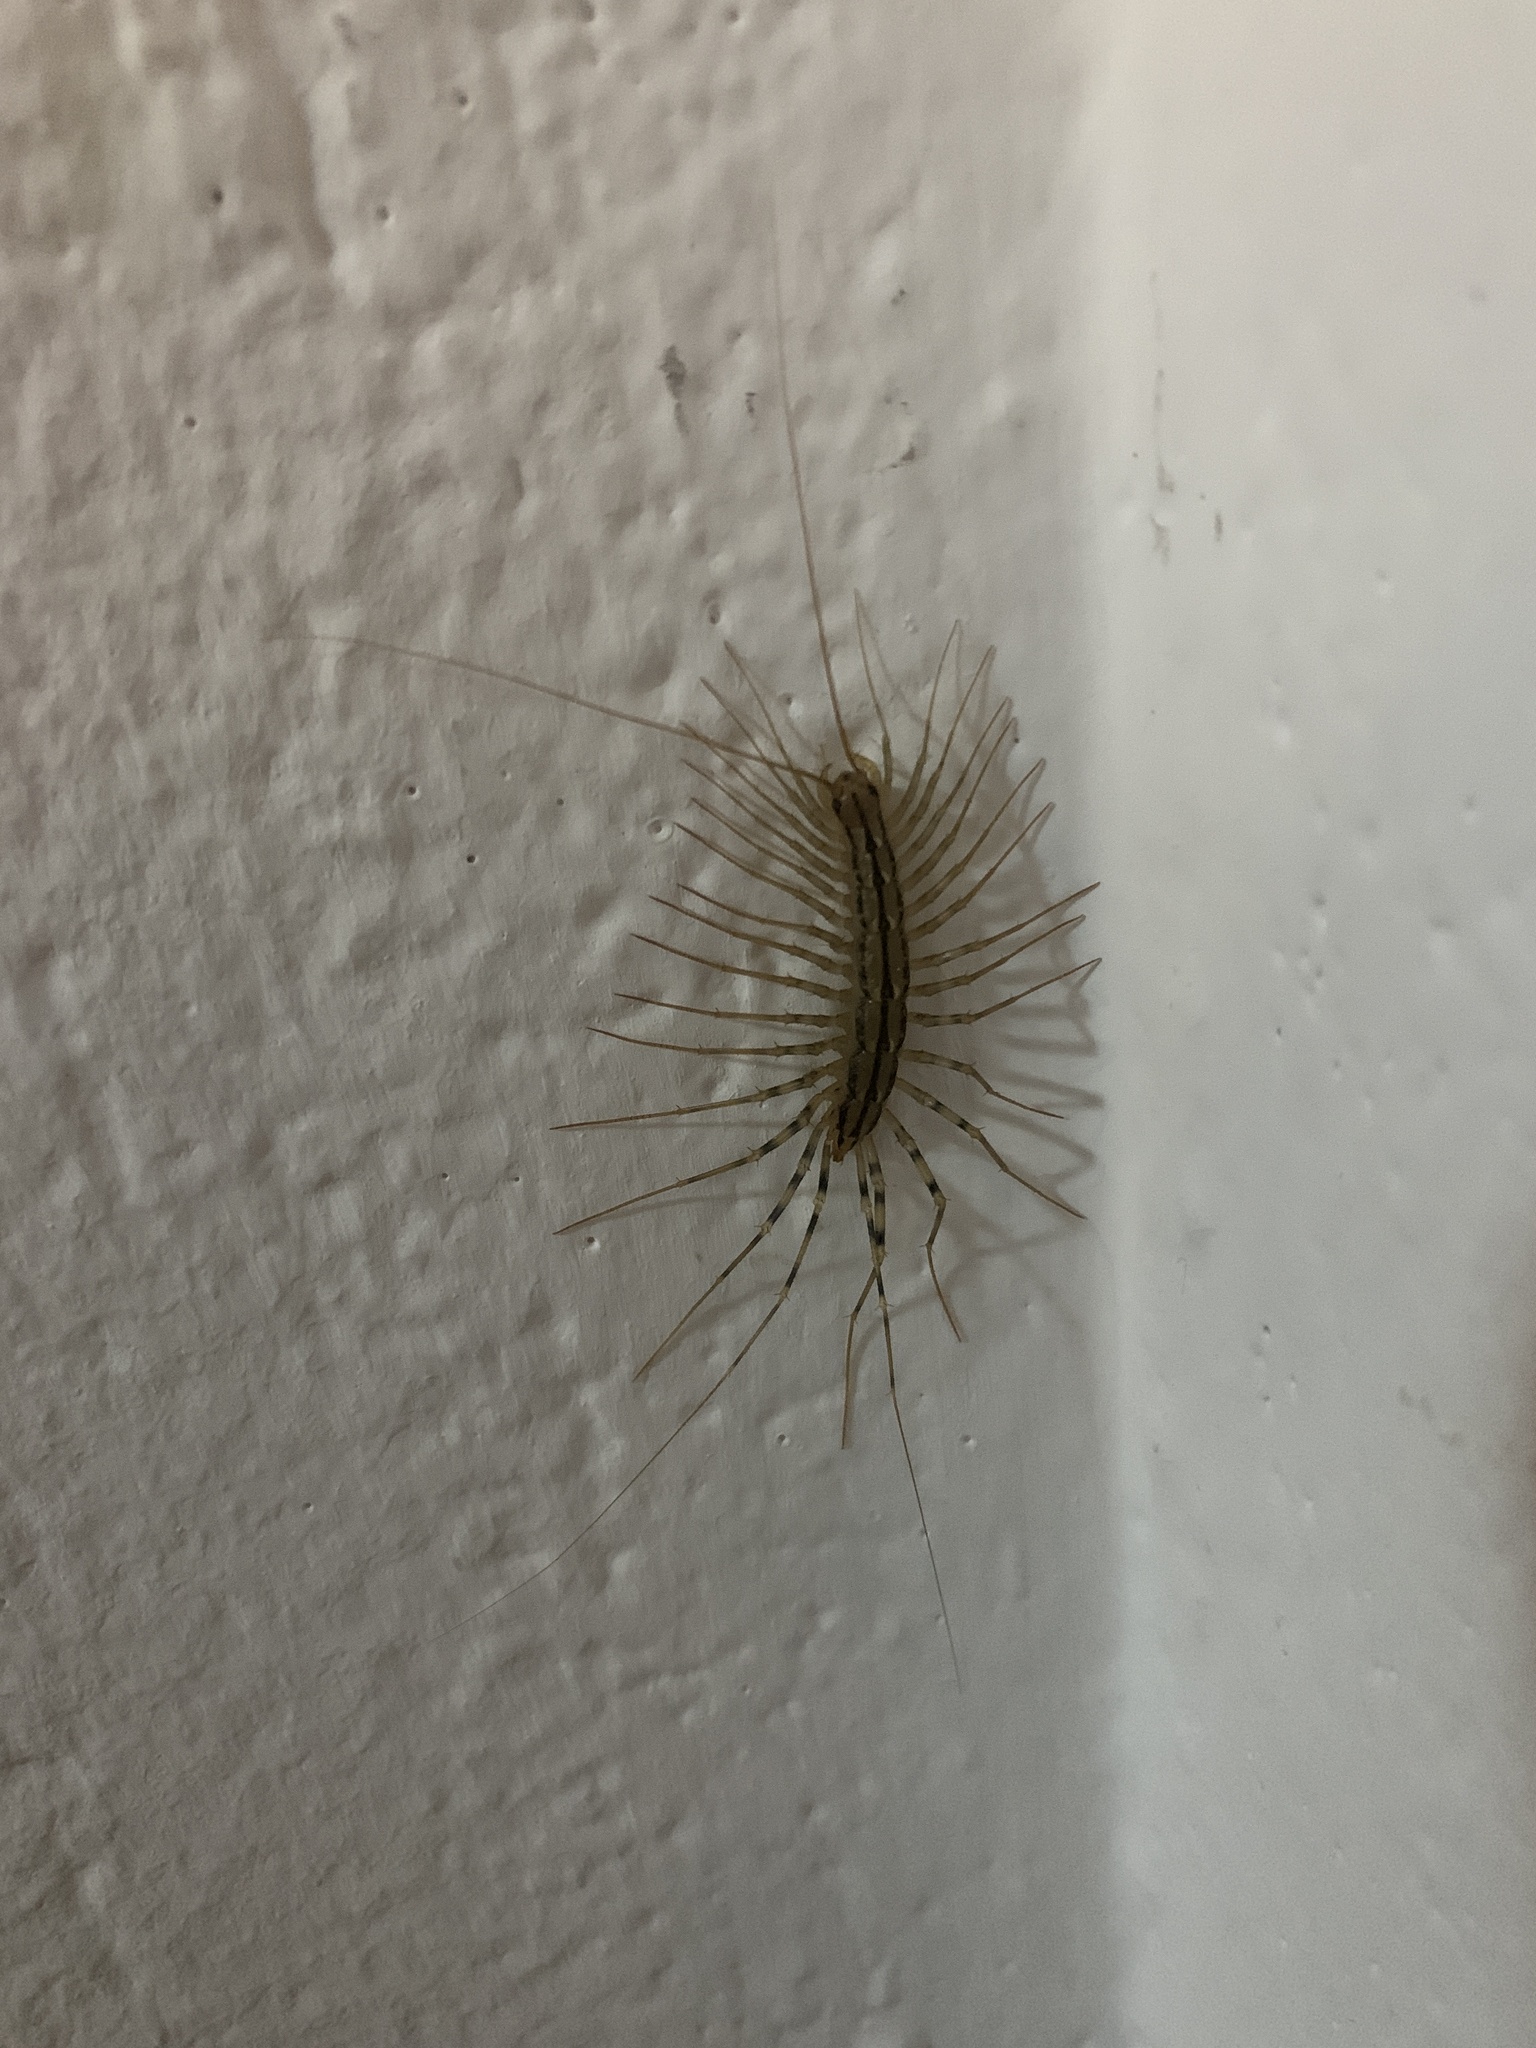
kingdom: Animalia
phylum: Arthropoda
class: Chilopoda
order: Scutigeromorpha
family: Scutigeridae
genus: Scutigera
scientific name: Scutigera coleoptrata
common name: House centipede
